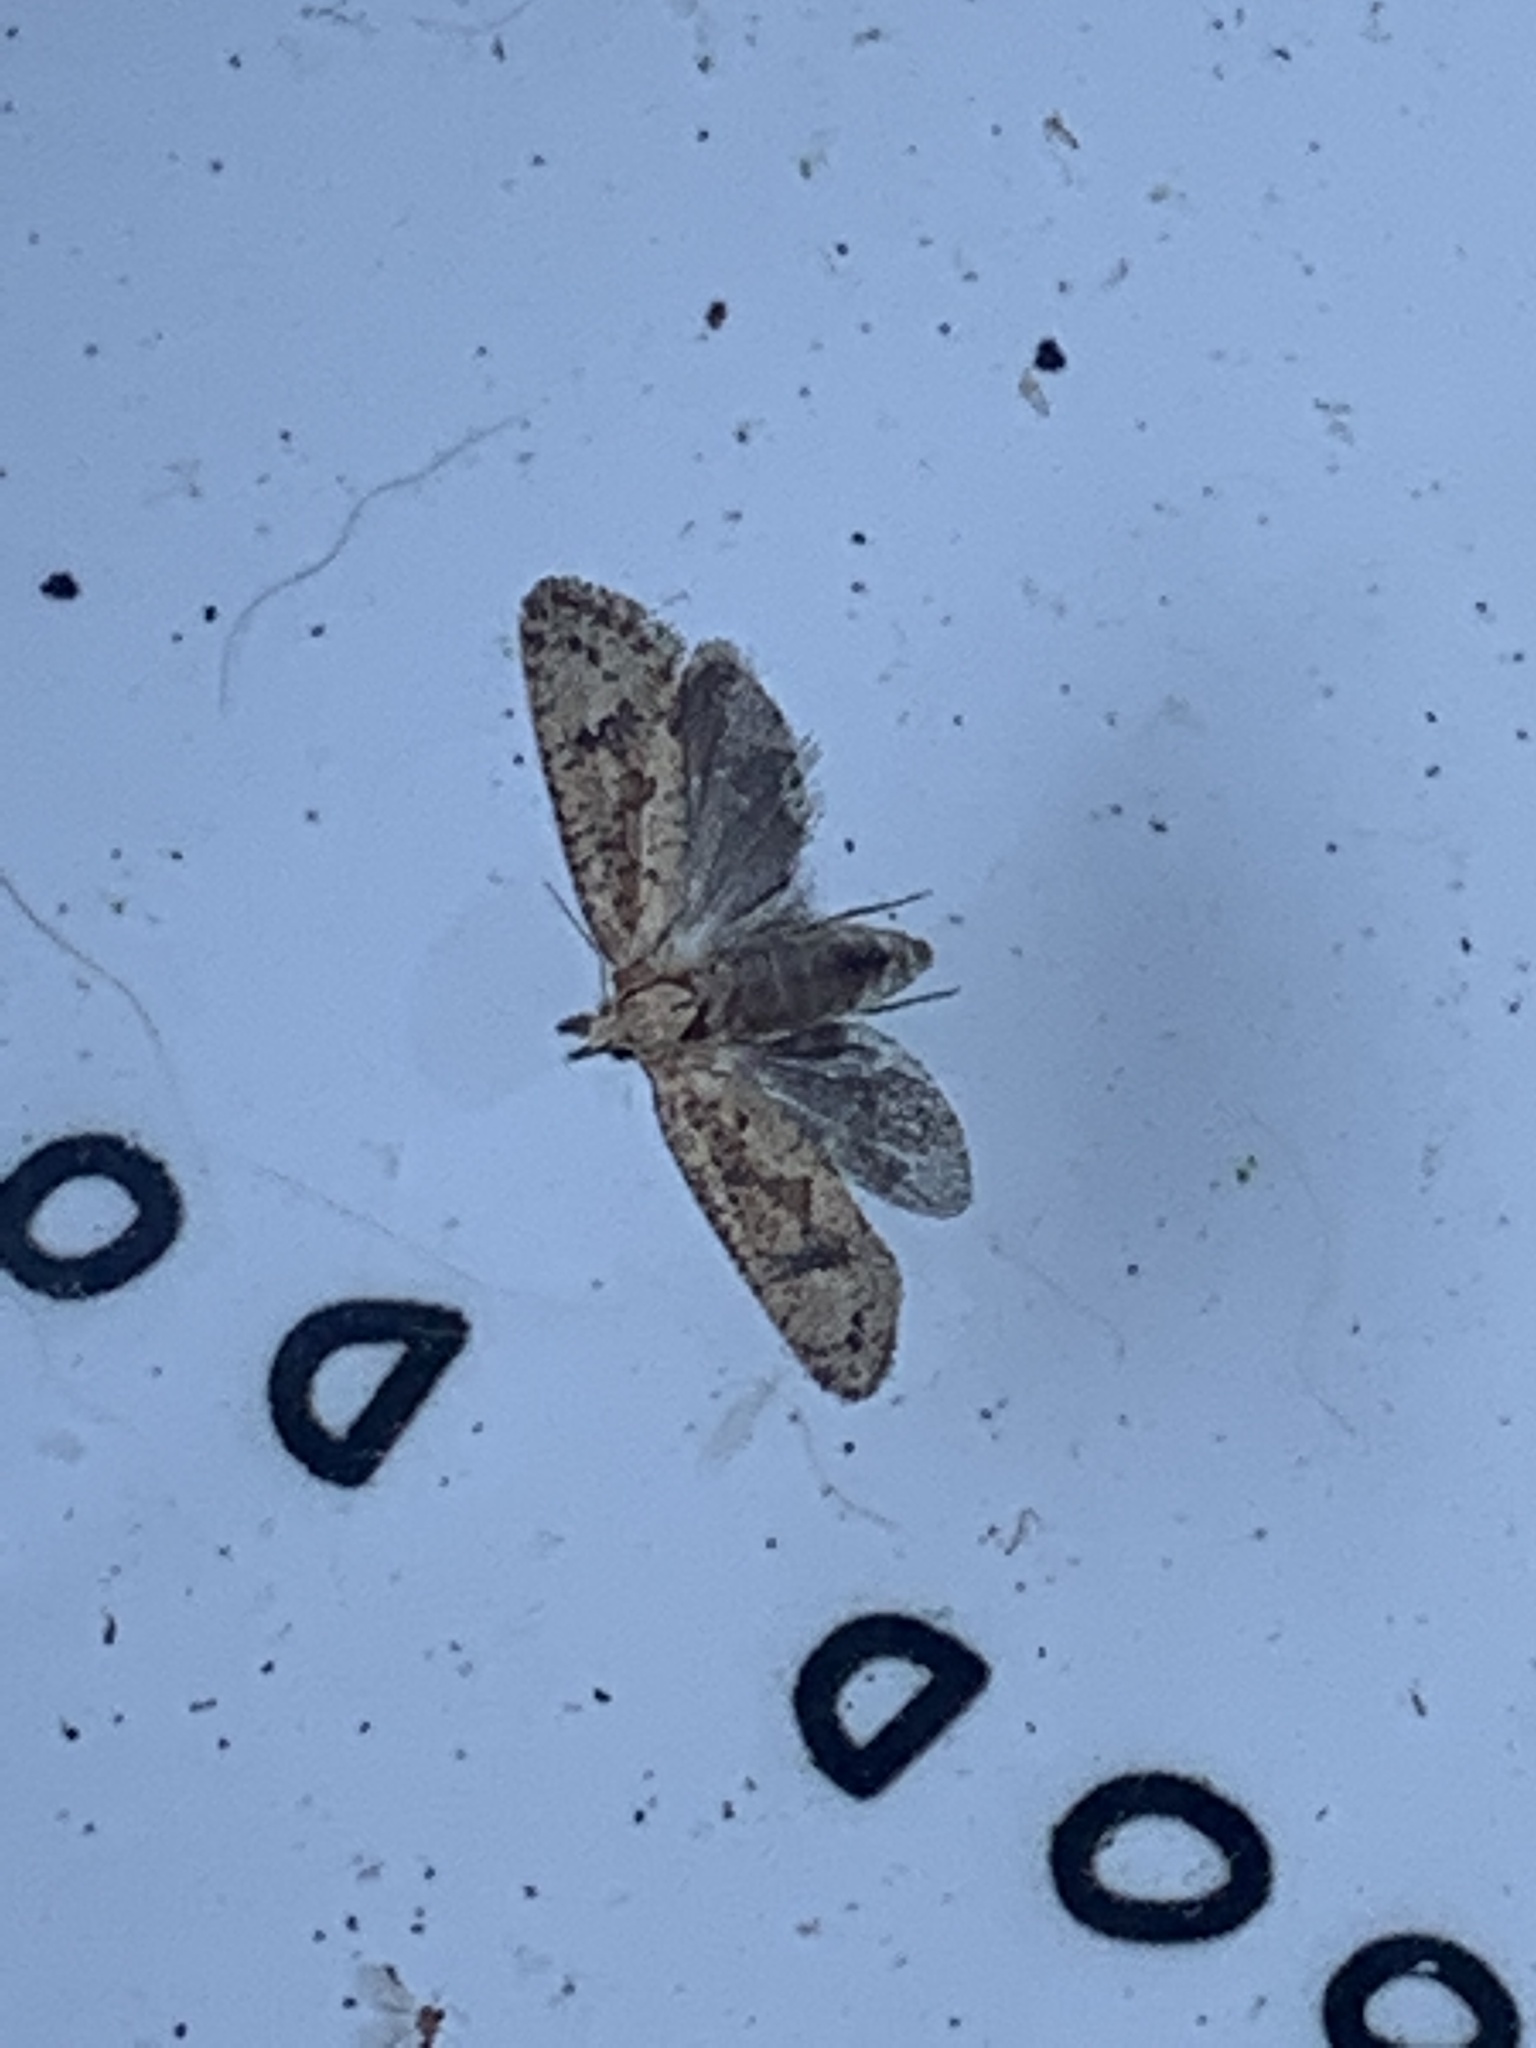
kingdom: Animalia
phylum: Arthropoda
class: Insecta
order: Lepidoptera
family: Tineidae
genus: Acrolophus
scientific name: Acrolophus walsinghami
